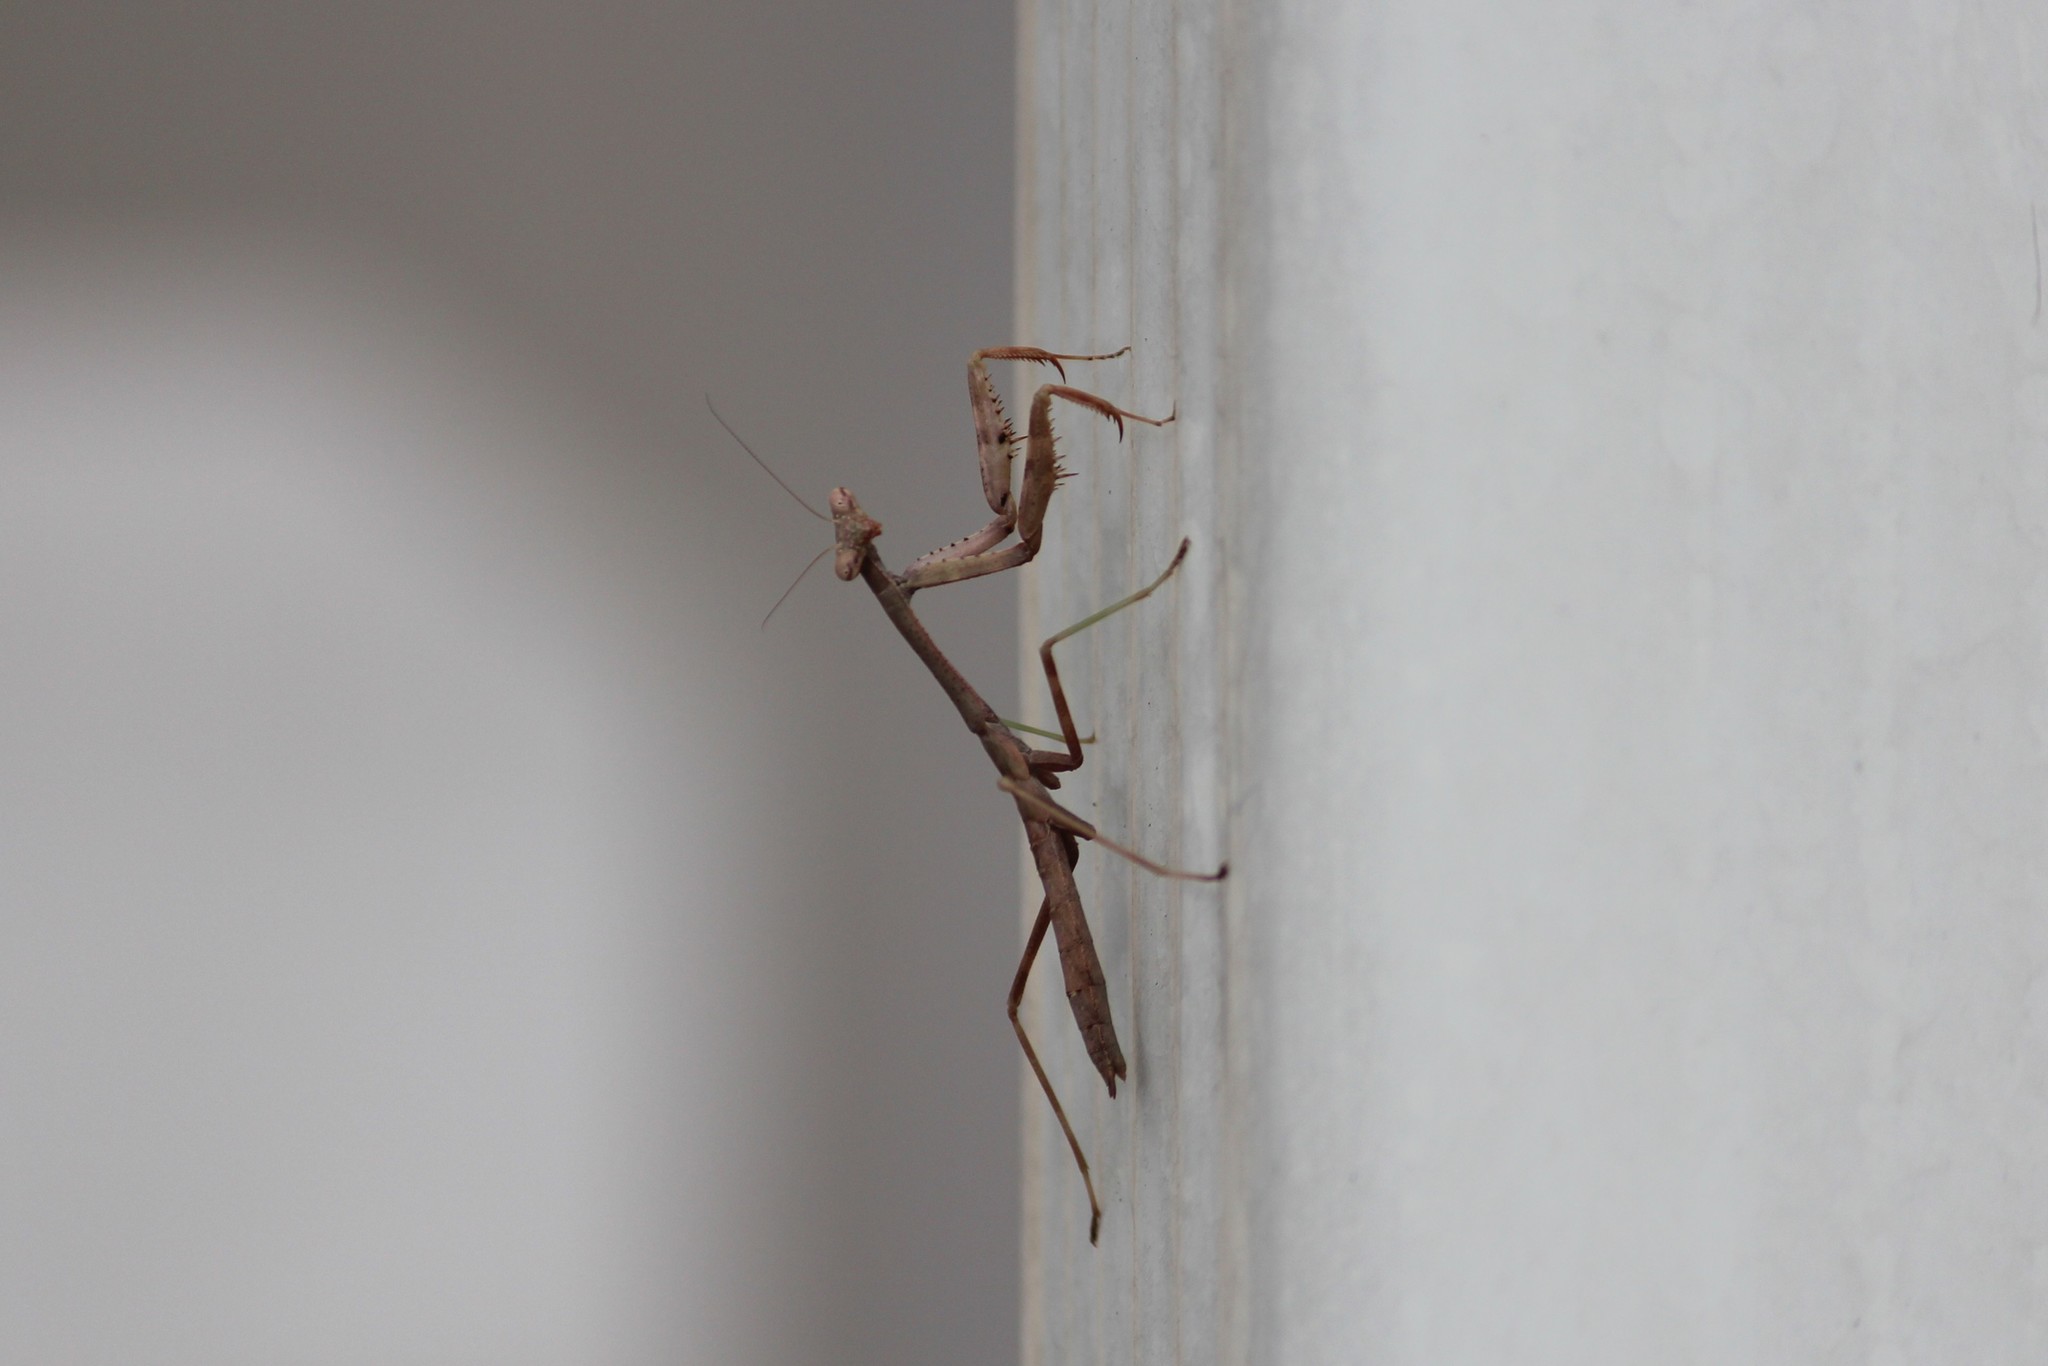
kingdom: Animalia
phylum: Arthropoda
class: Insecta
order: Mantodea
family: Mantidae
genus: Stagmomantis
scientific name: Stagmomantis carolina
